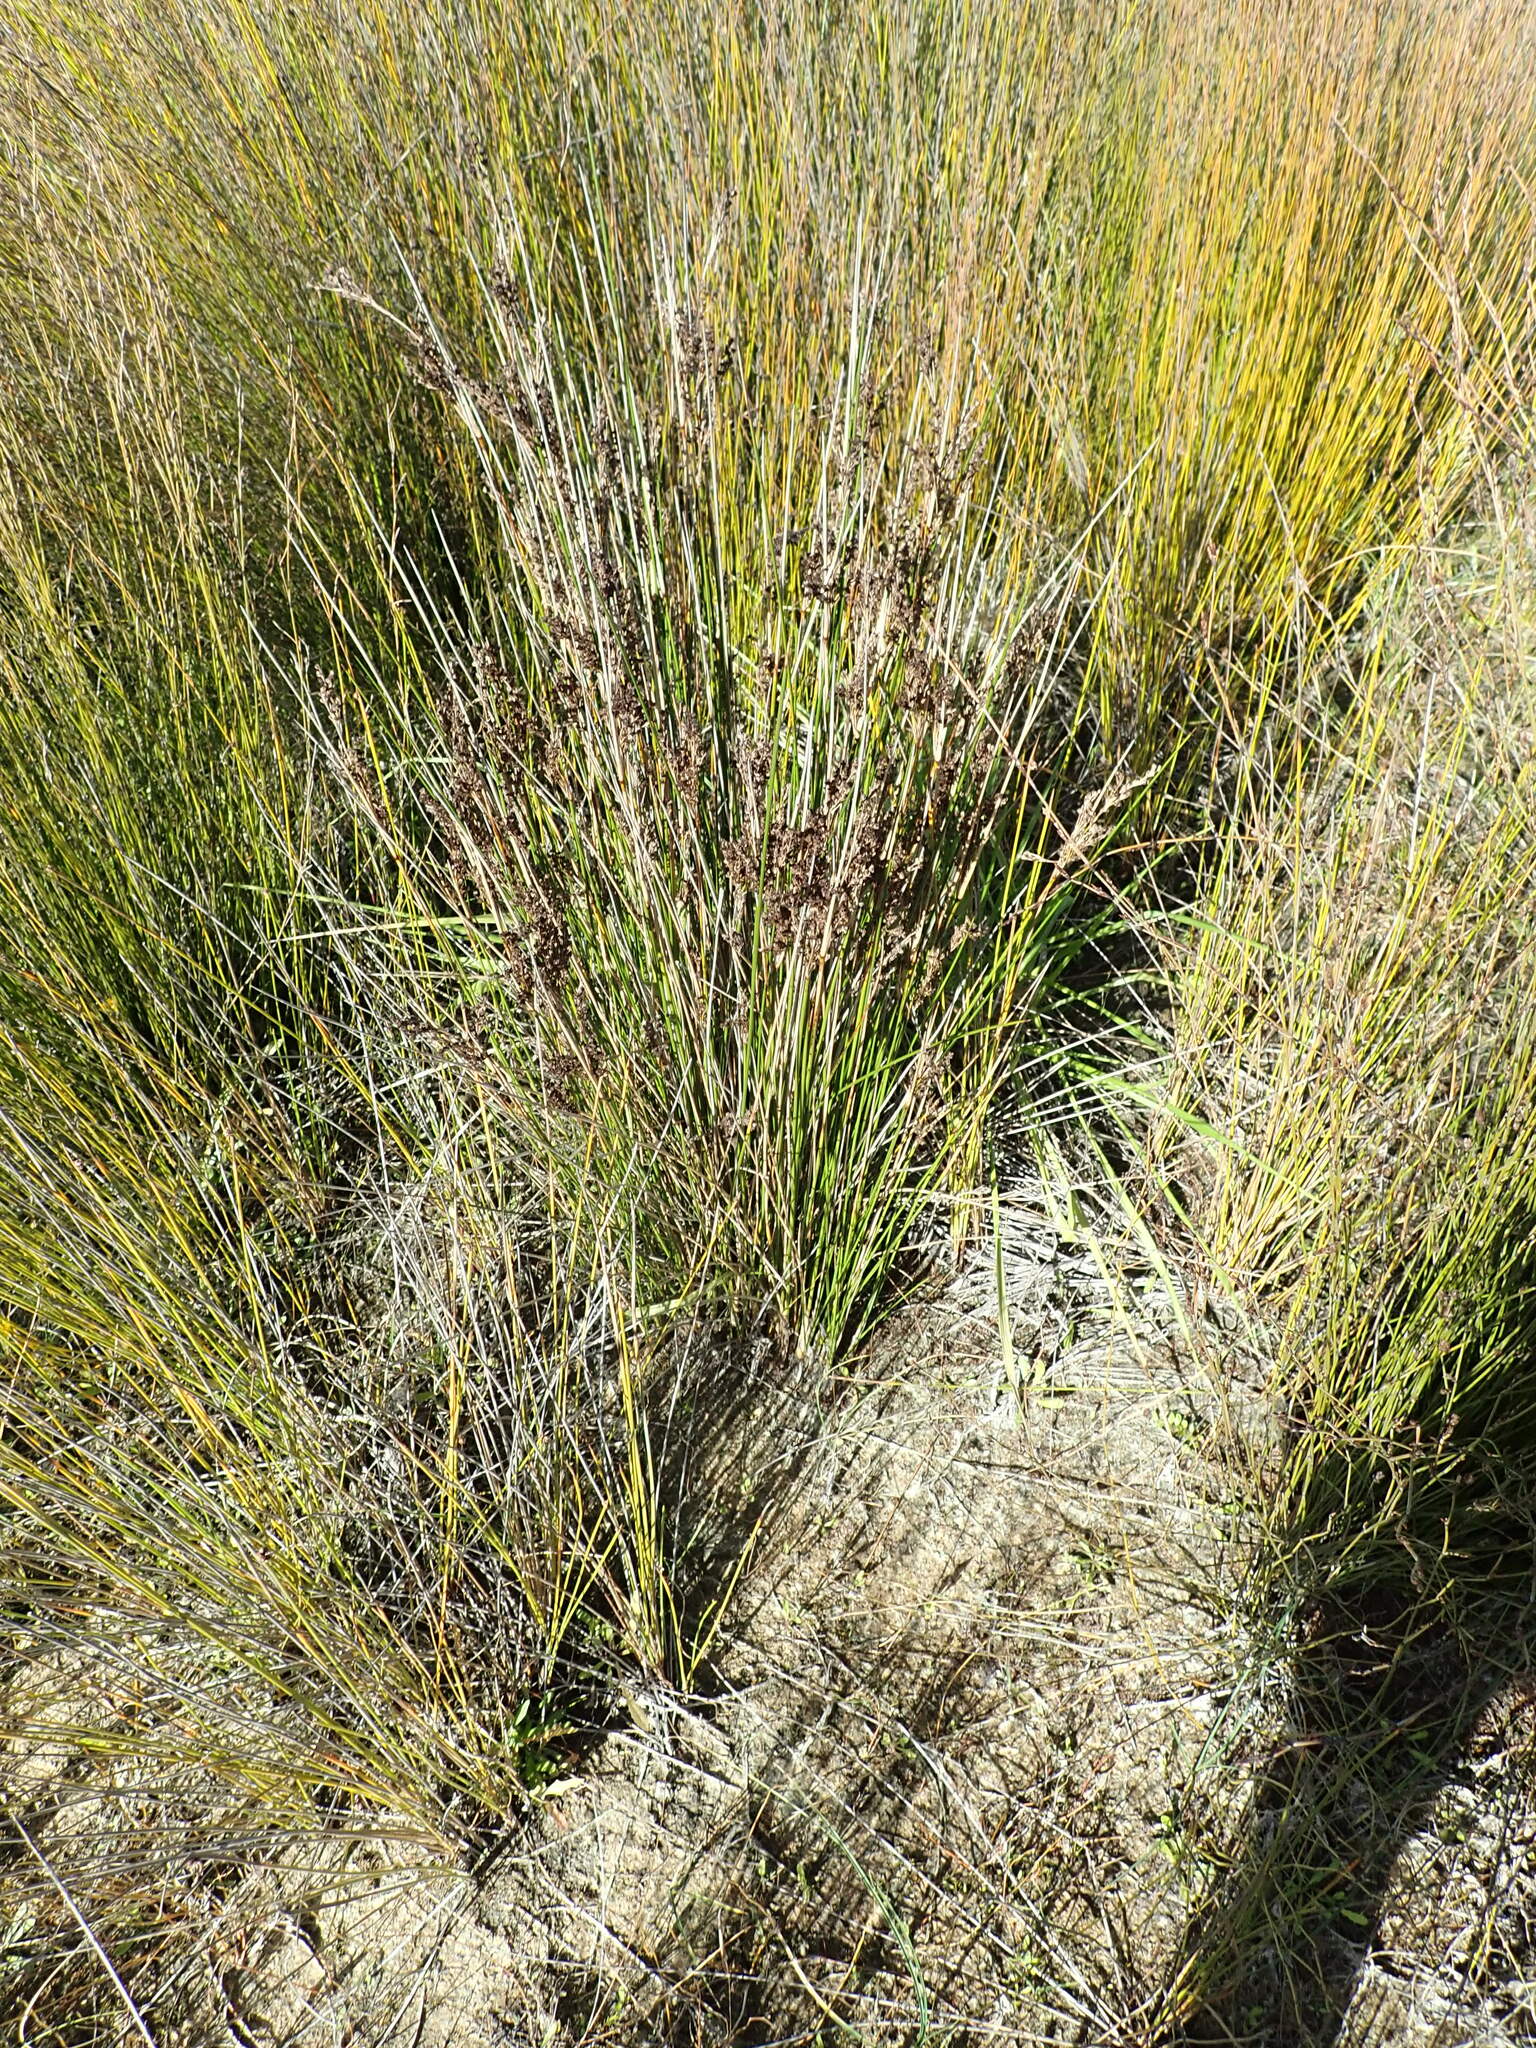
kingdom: Plantae
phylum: Tracheophyta
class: Liliopsida
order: Poales
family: Juncaceae
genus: Juncus
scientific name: Juncus kraussii
